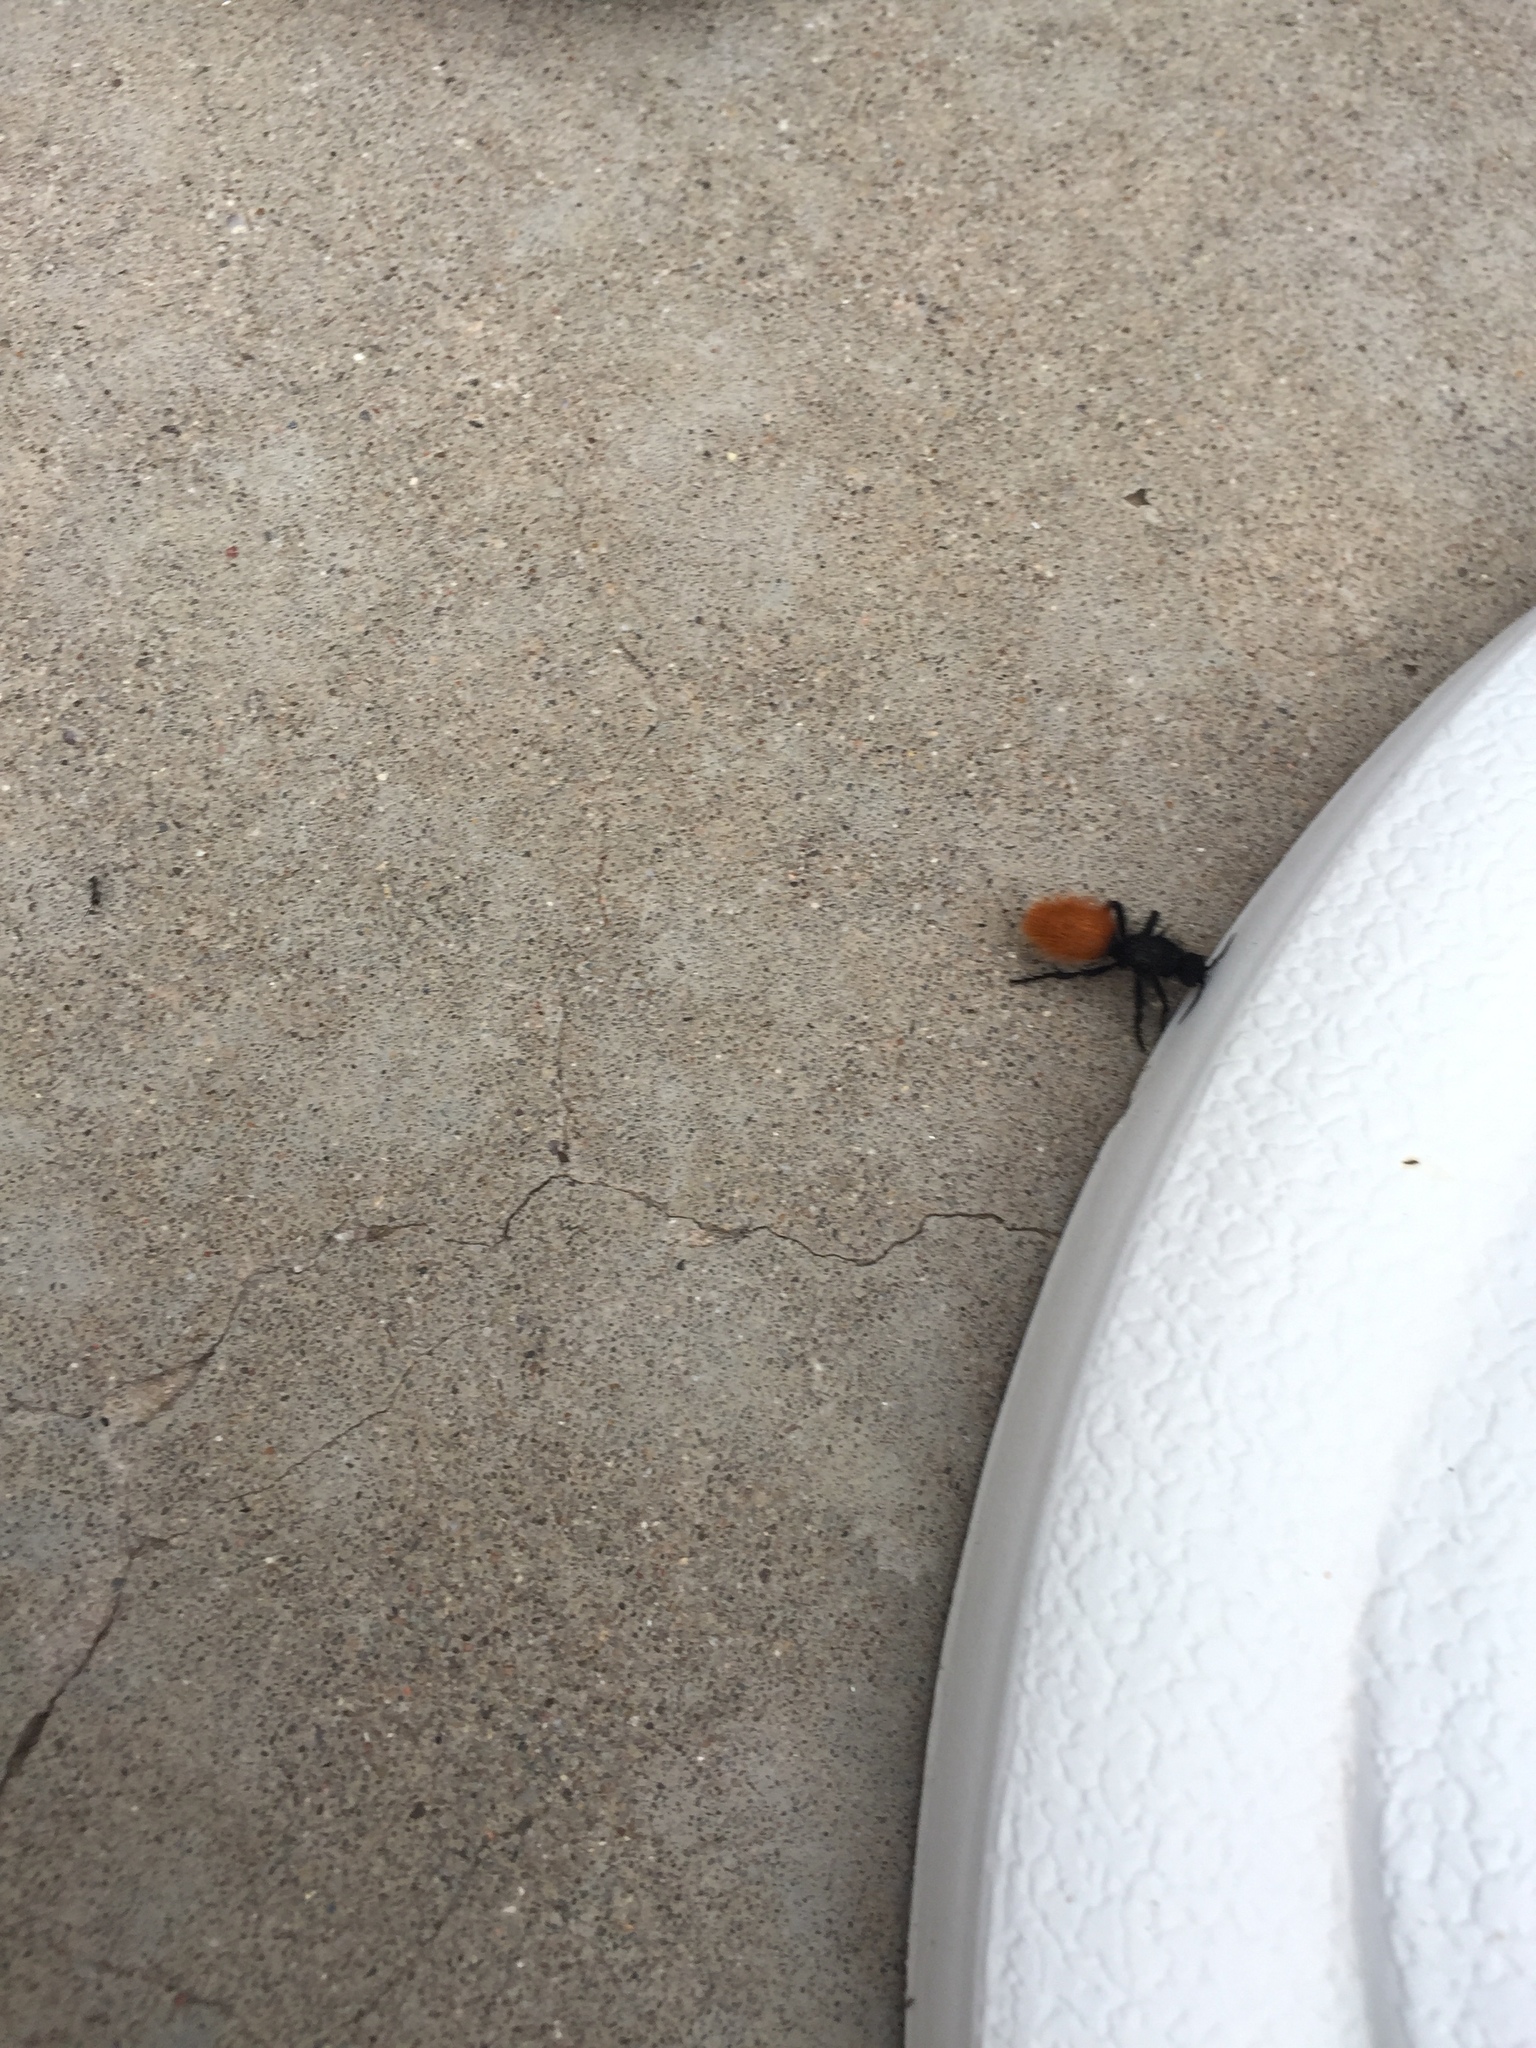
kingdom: Animalia
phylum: Arthropoda
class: Insecta
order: Hymenoptera
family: Mutillidae
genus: Dasymutilla
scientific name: Dasymutilla
